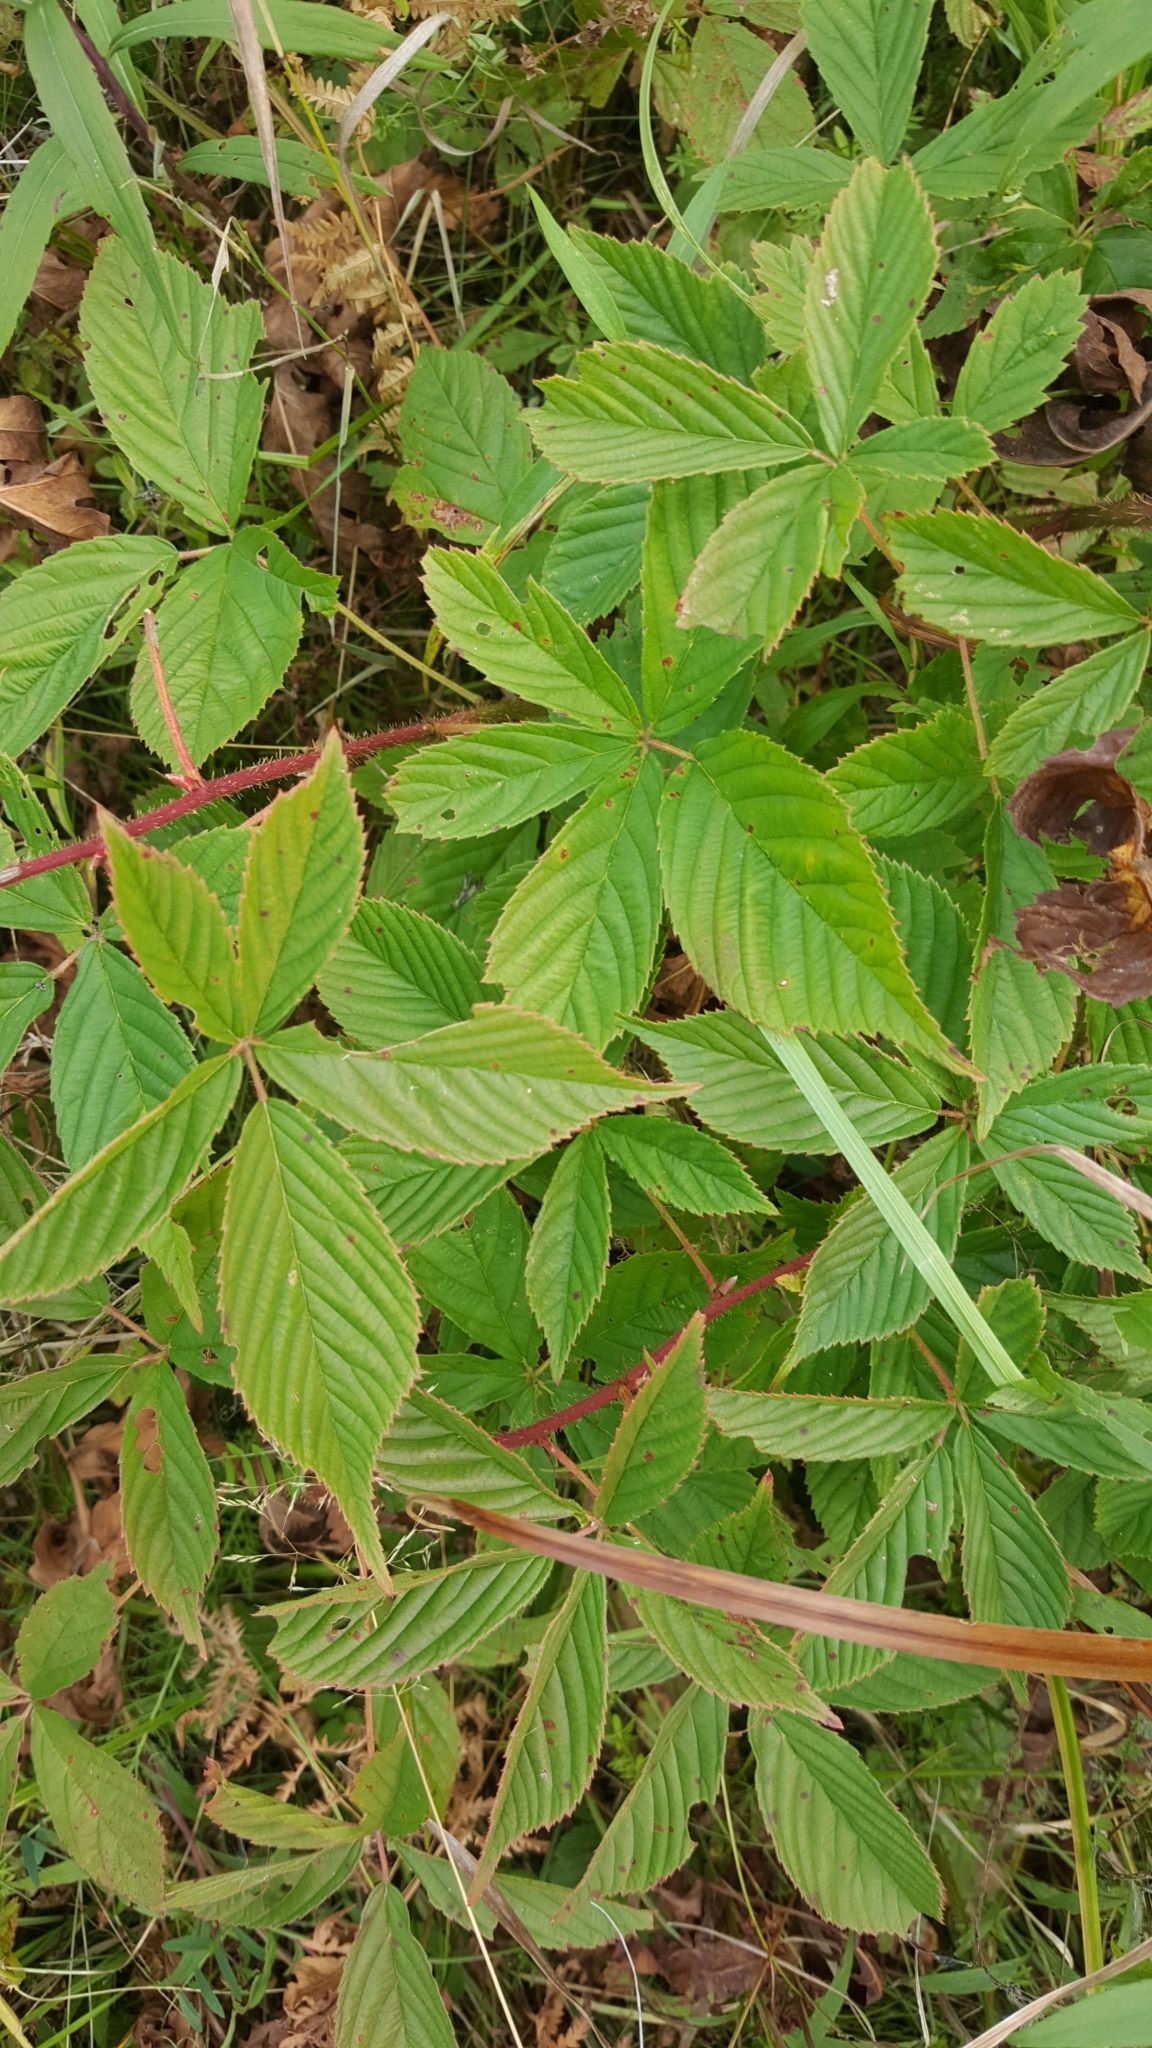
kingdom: Plantae
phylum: Tracheophyta
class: Magnoliopsida
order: Rosales
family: Rosaceae
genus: Rubus
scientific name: Rubus setosus
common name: Bristly blackberry
